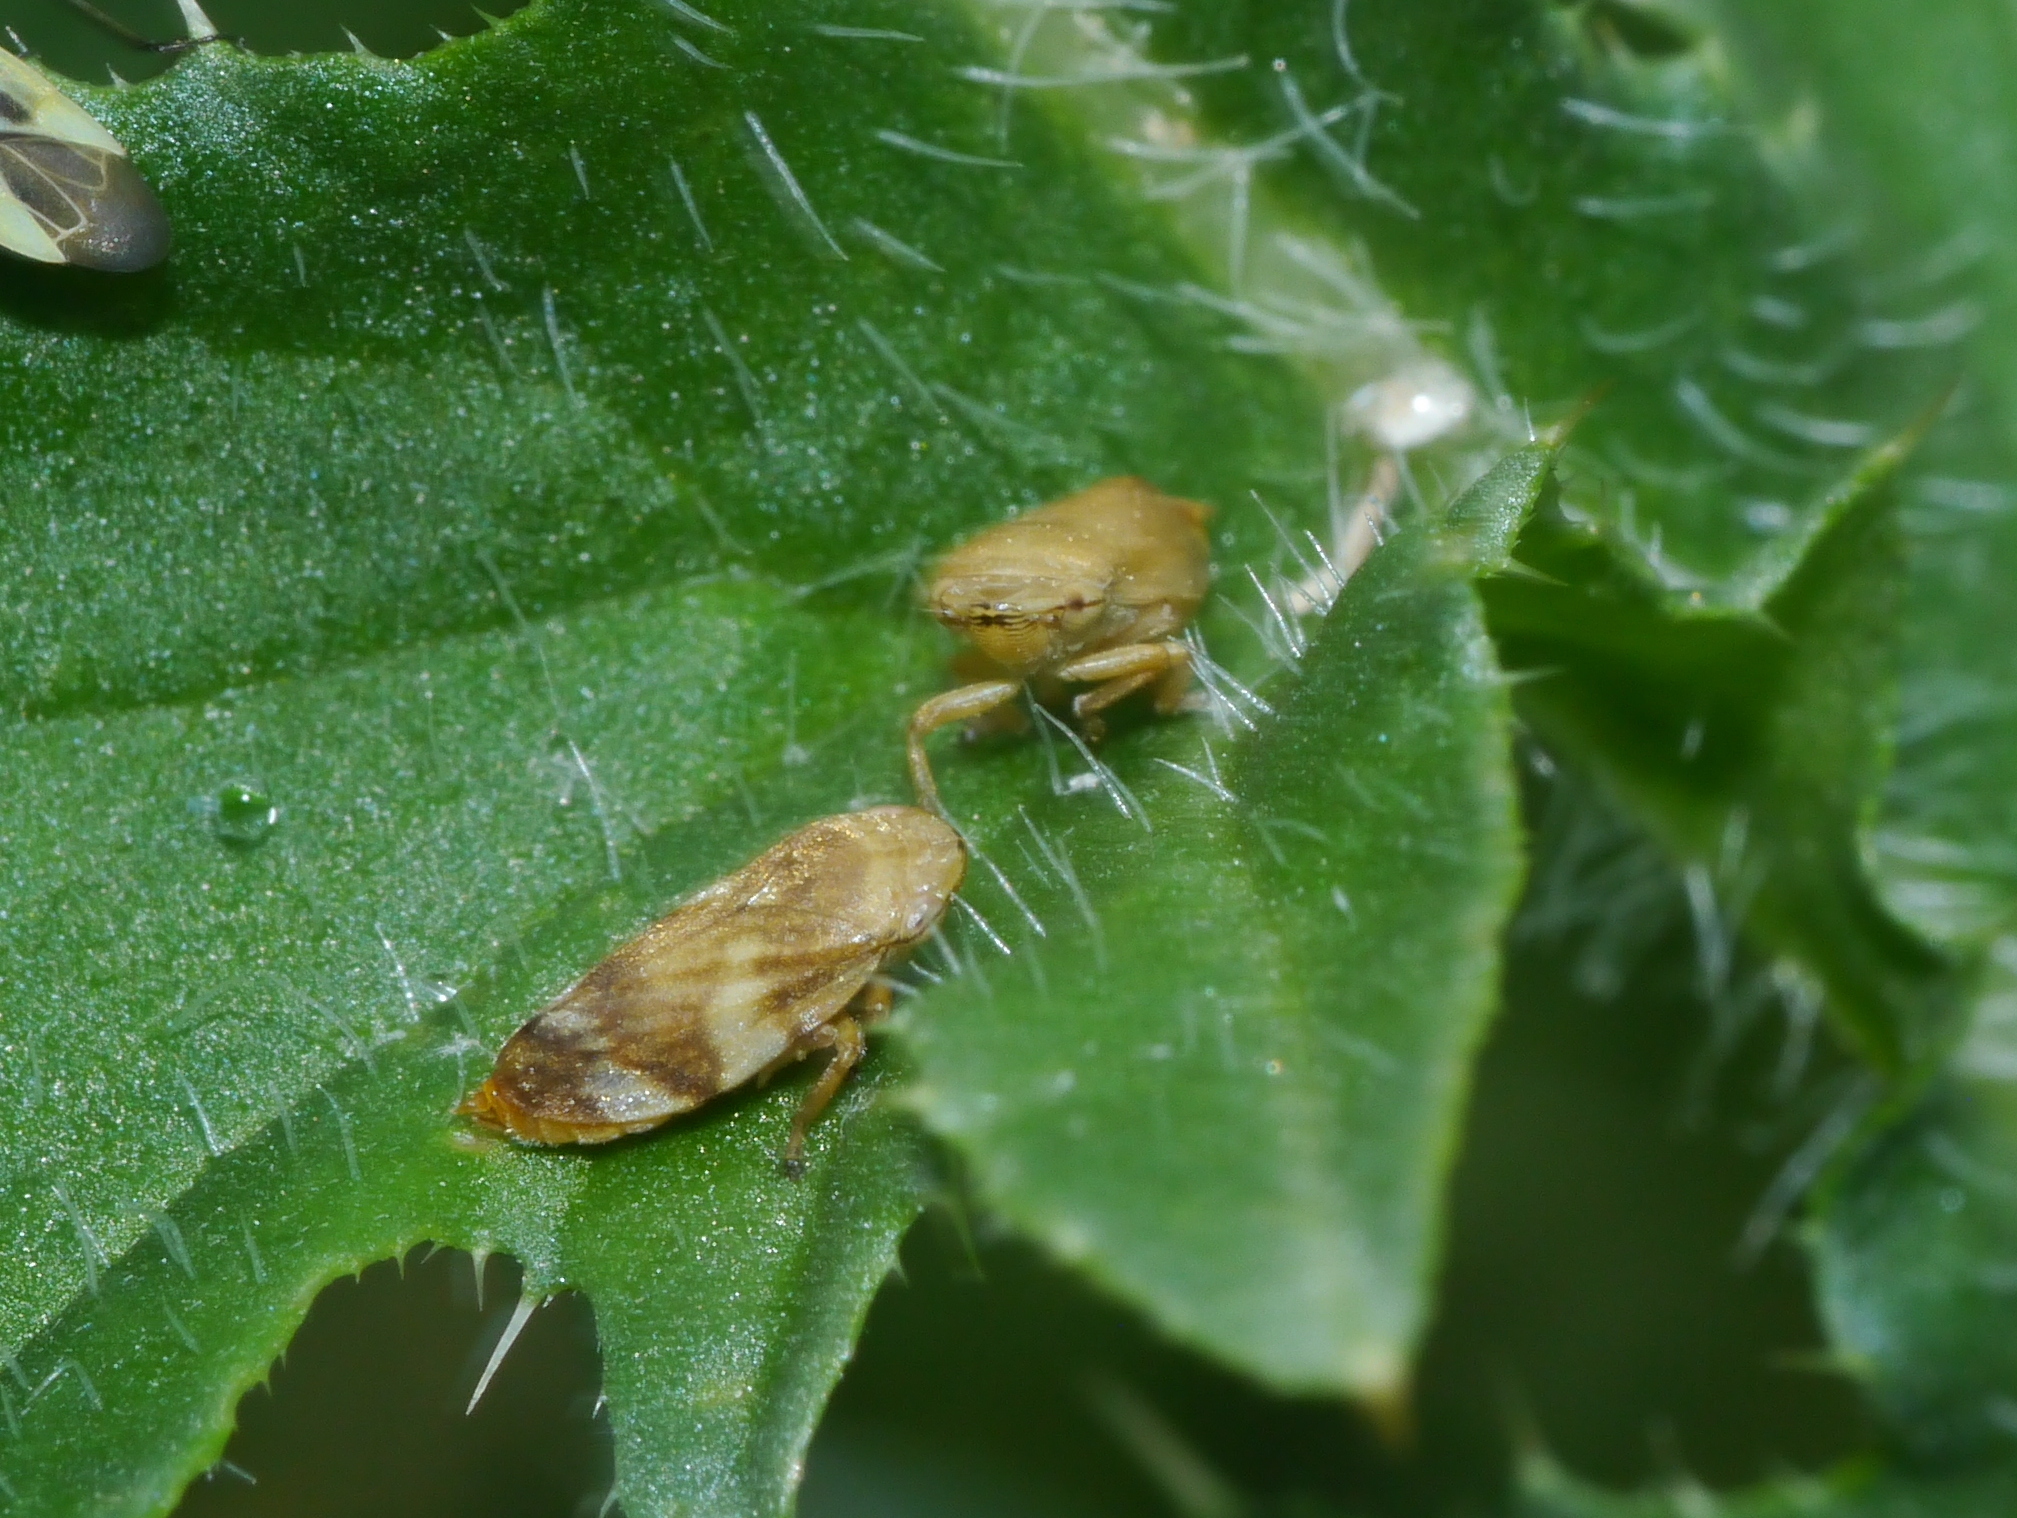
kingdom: Animalia
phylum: Arthropoda
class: Insecta
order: Hemiptera
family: Aphrophoridae
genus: Philaenus
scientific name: Philaenus spumarius
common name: Meadow spittlebug
